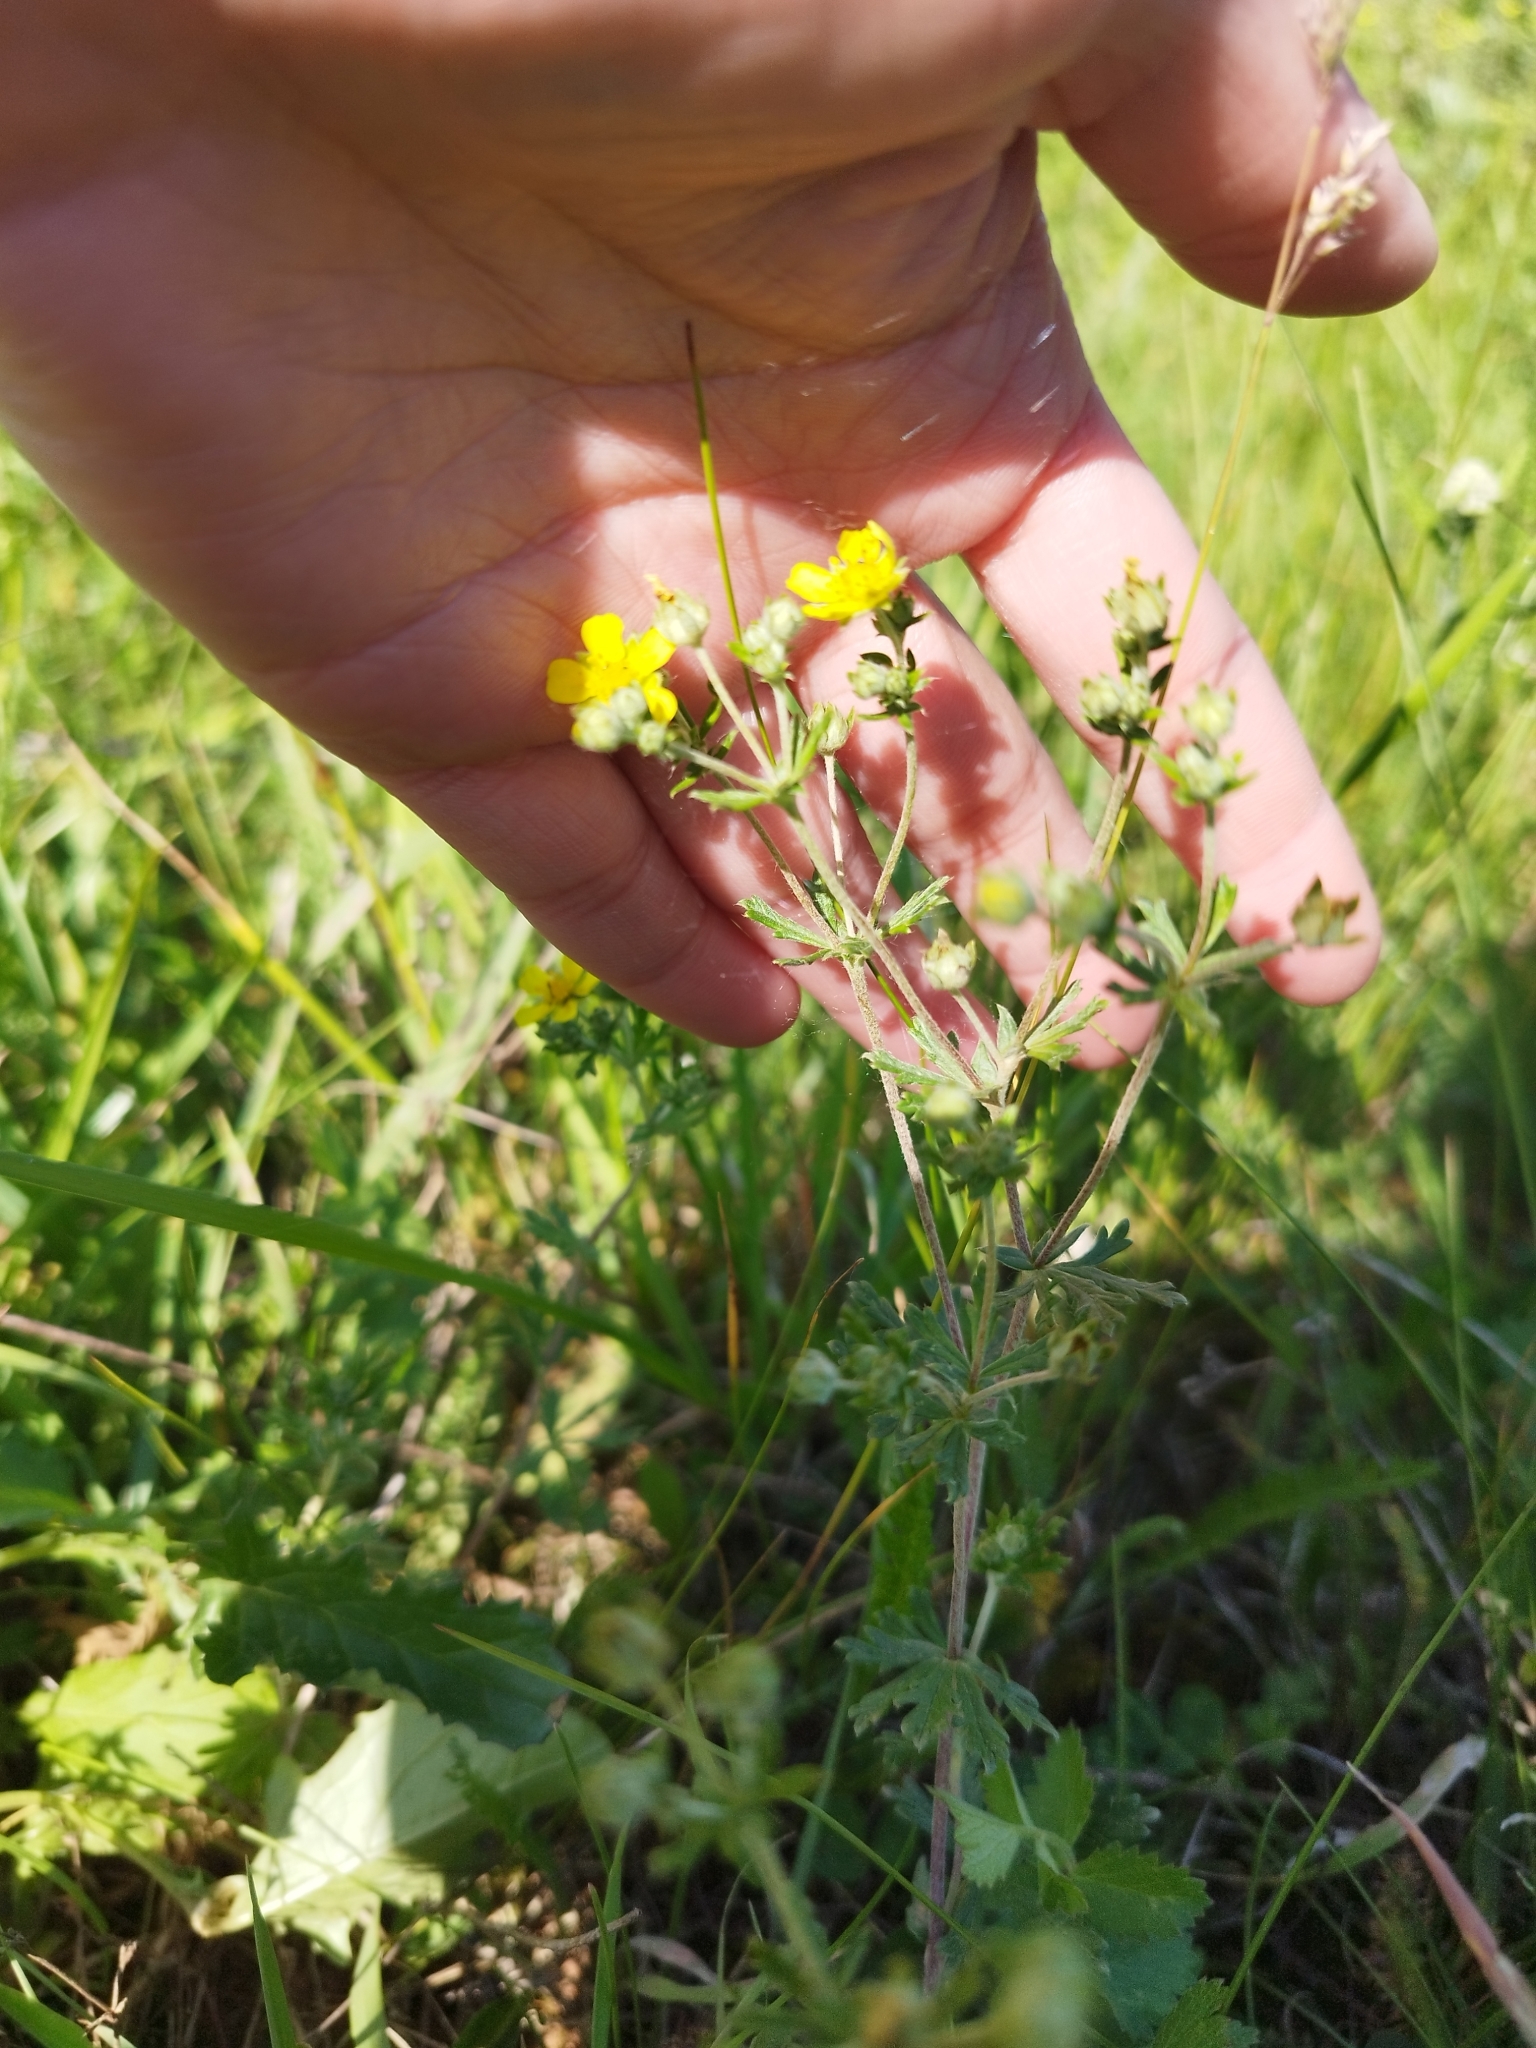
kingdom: Plantae
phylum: Tracheophyta
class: Magnoliopsida
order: Rosales
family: Rosaceae
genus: Potentilla
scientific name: Potentilla argentea
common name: Hoary cinquefoil
